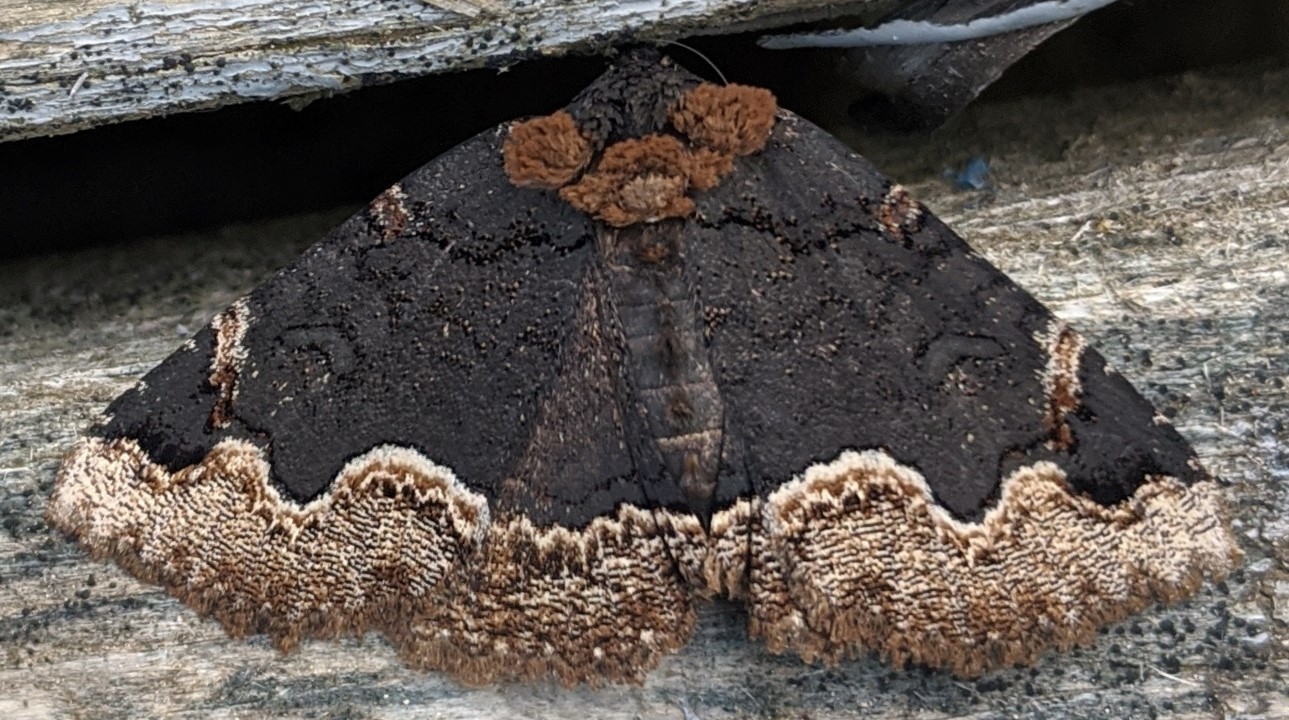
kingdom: Animalia
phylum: Arthropoda
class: Insecta
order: Lepidoptera
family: Erebidae
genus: Zale
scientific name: Zale horrida
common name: Horrid zale moth
